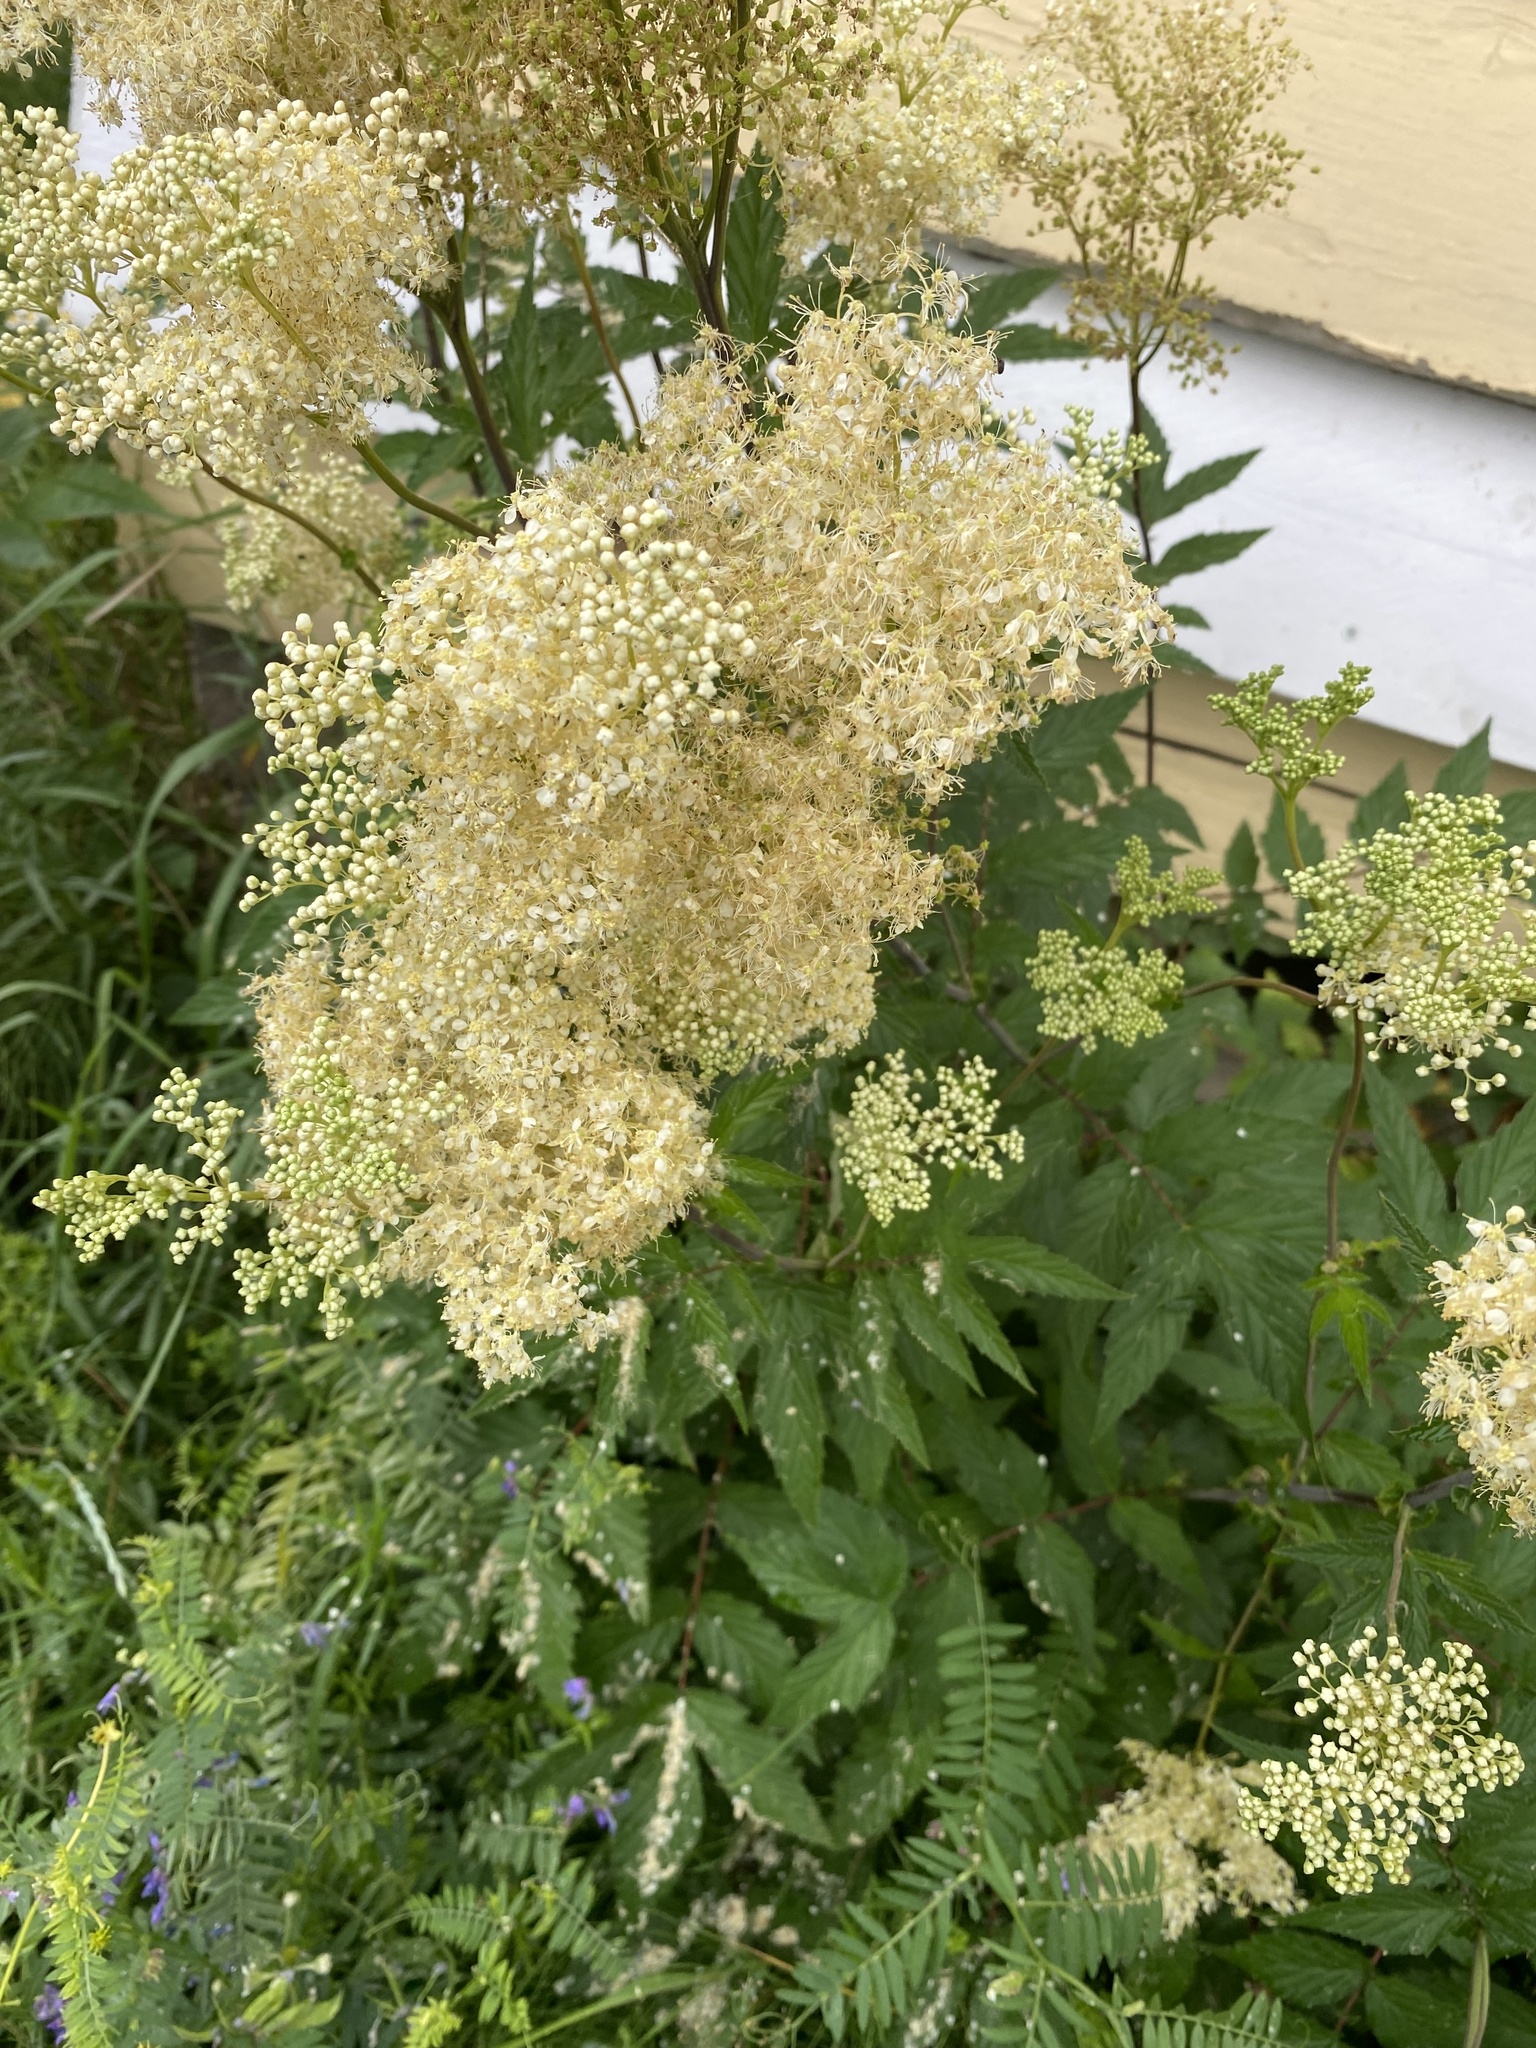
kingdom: Plantae
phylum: Tracheophyta
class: Magnoliopsida
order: Rosales
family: Rosaceae
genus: Filipendula
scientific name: Filipendula ulmaria
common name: Meadowsweet
